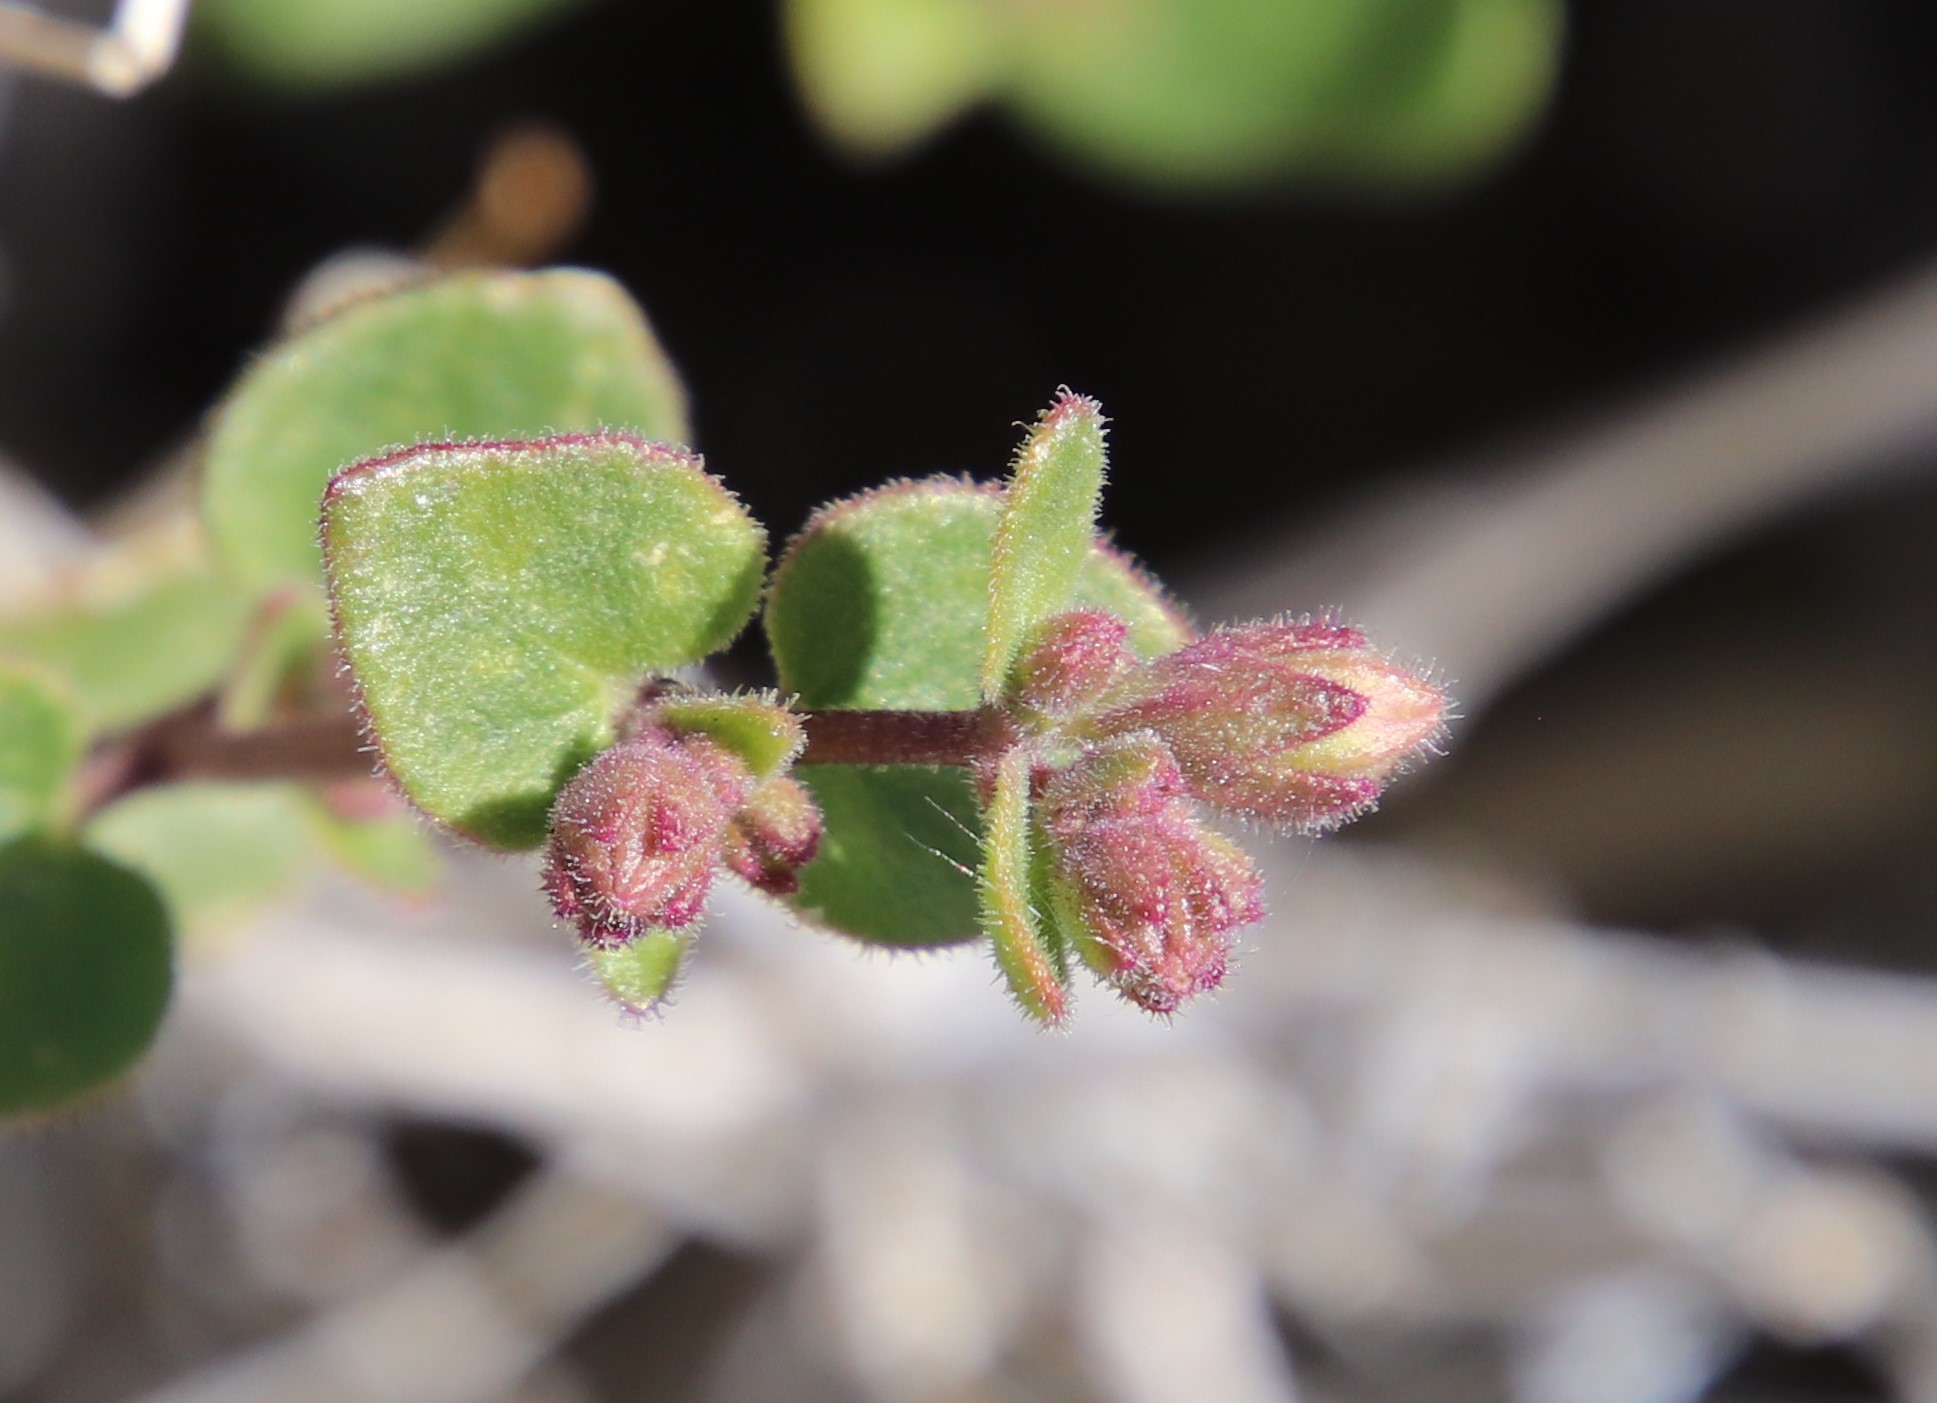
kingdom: Plantae
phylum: Tracheophyta
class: Magnoliopsida
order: Caryophyllales
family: Nyctaginaceae
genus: Mirabilis
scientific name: Mirabilis laevis
